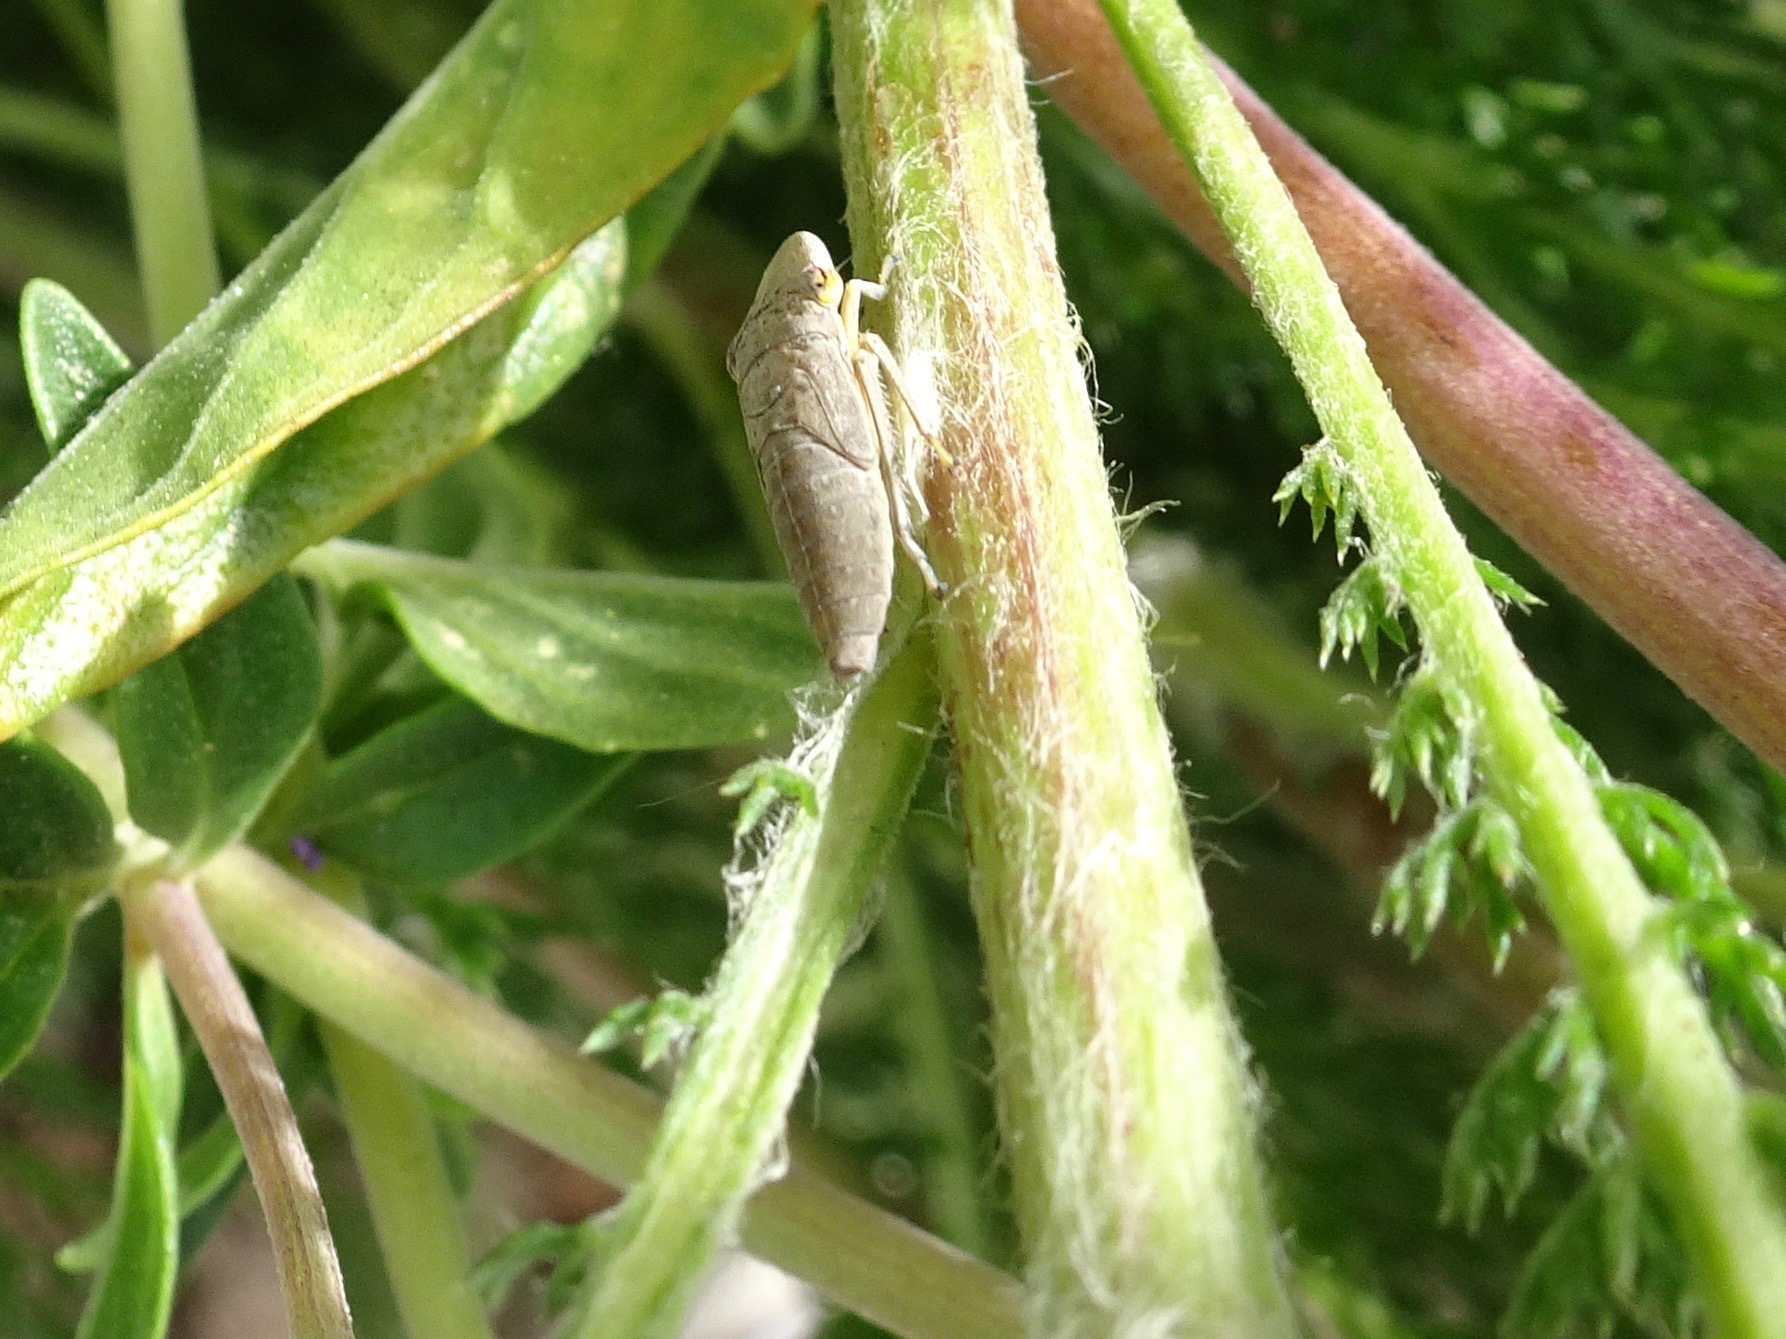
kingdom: Animalia
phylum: Arthropoda
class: Insecta
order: Hemiptera
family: Cicadellidae
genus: Homalodisca
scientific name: Homalodisca
